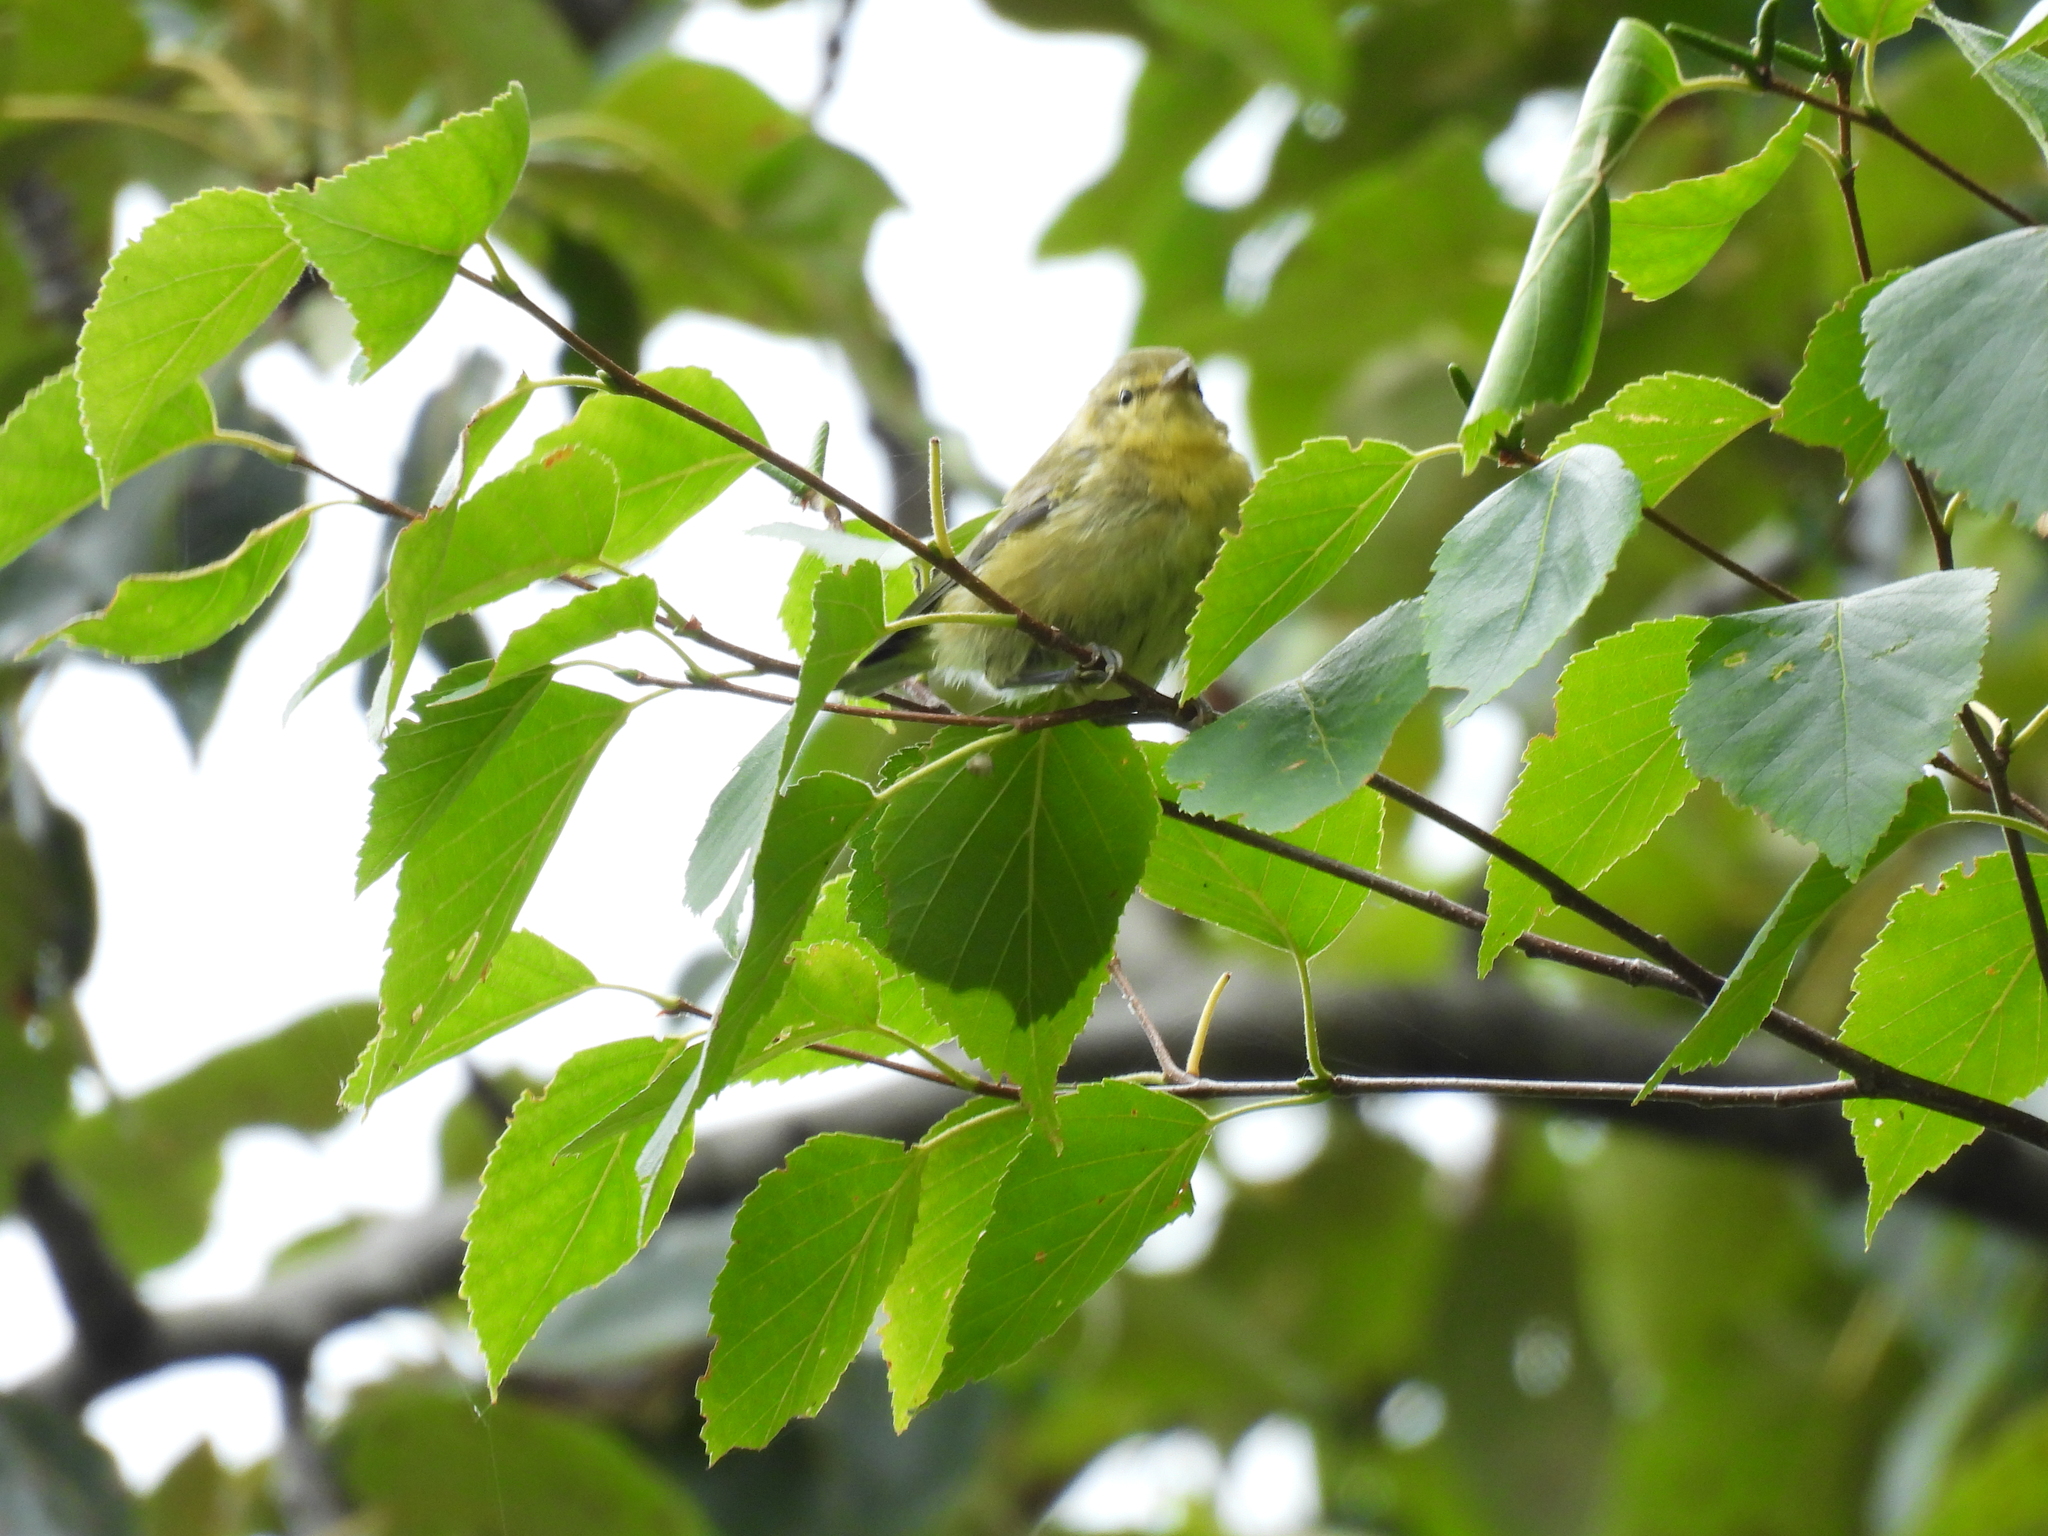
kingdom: Animalia
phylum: Chordata
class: Aves
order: Passeriformes
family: Parulidae
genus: Leiothlypis
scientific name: Leiothlypis peregrina
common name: Tennessee warbler
